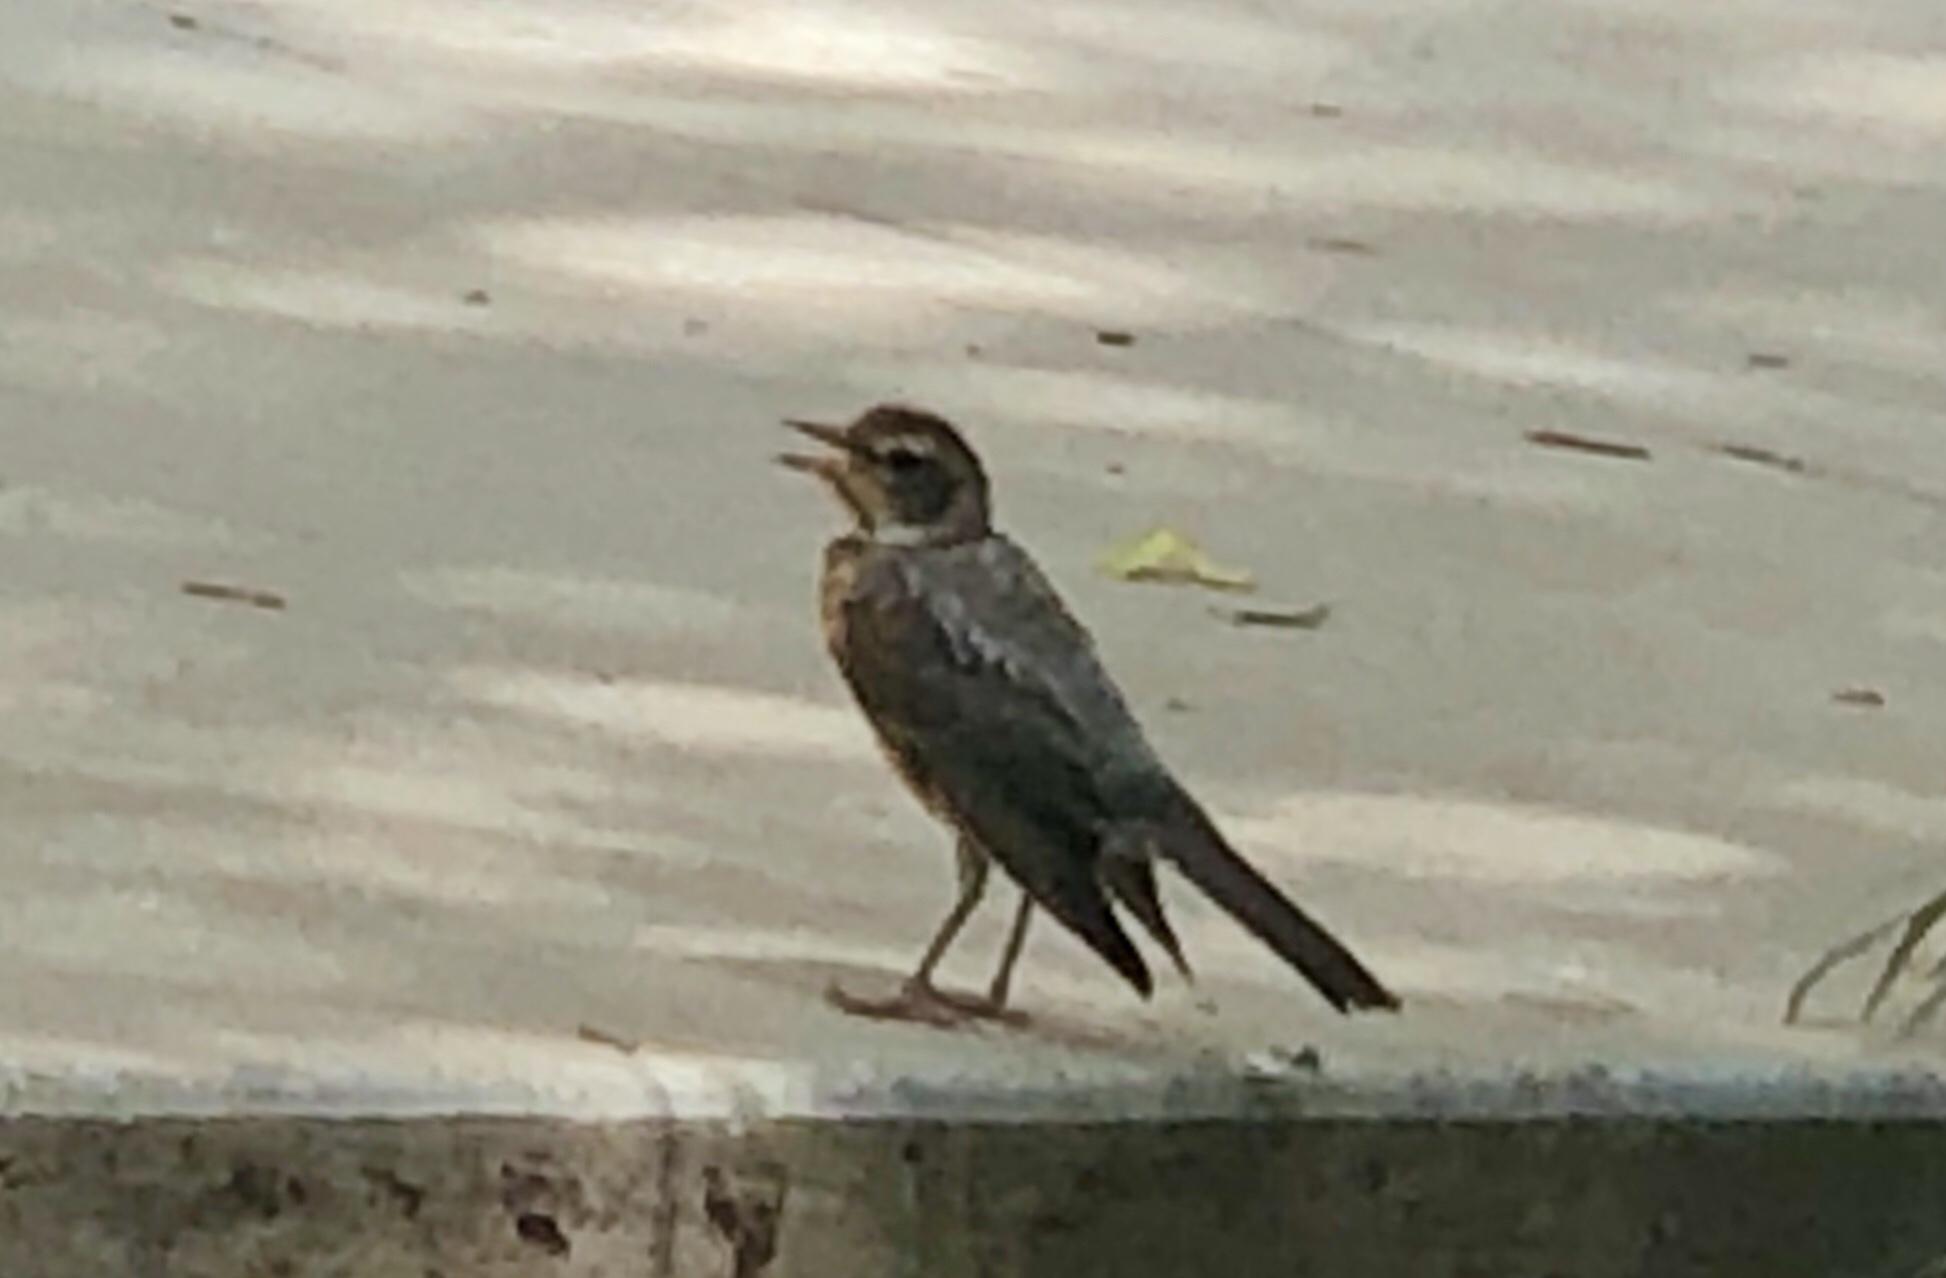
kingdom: Animalia
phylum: Chordata
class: Aves
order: Passeriformes
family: Turdidae
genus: Turdus
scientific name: Turdus migratorius
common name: American robin
